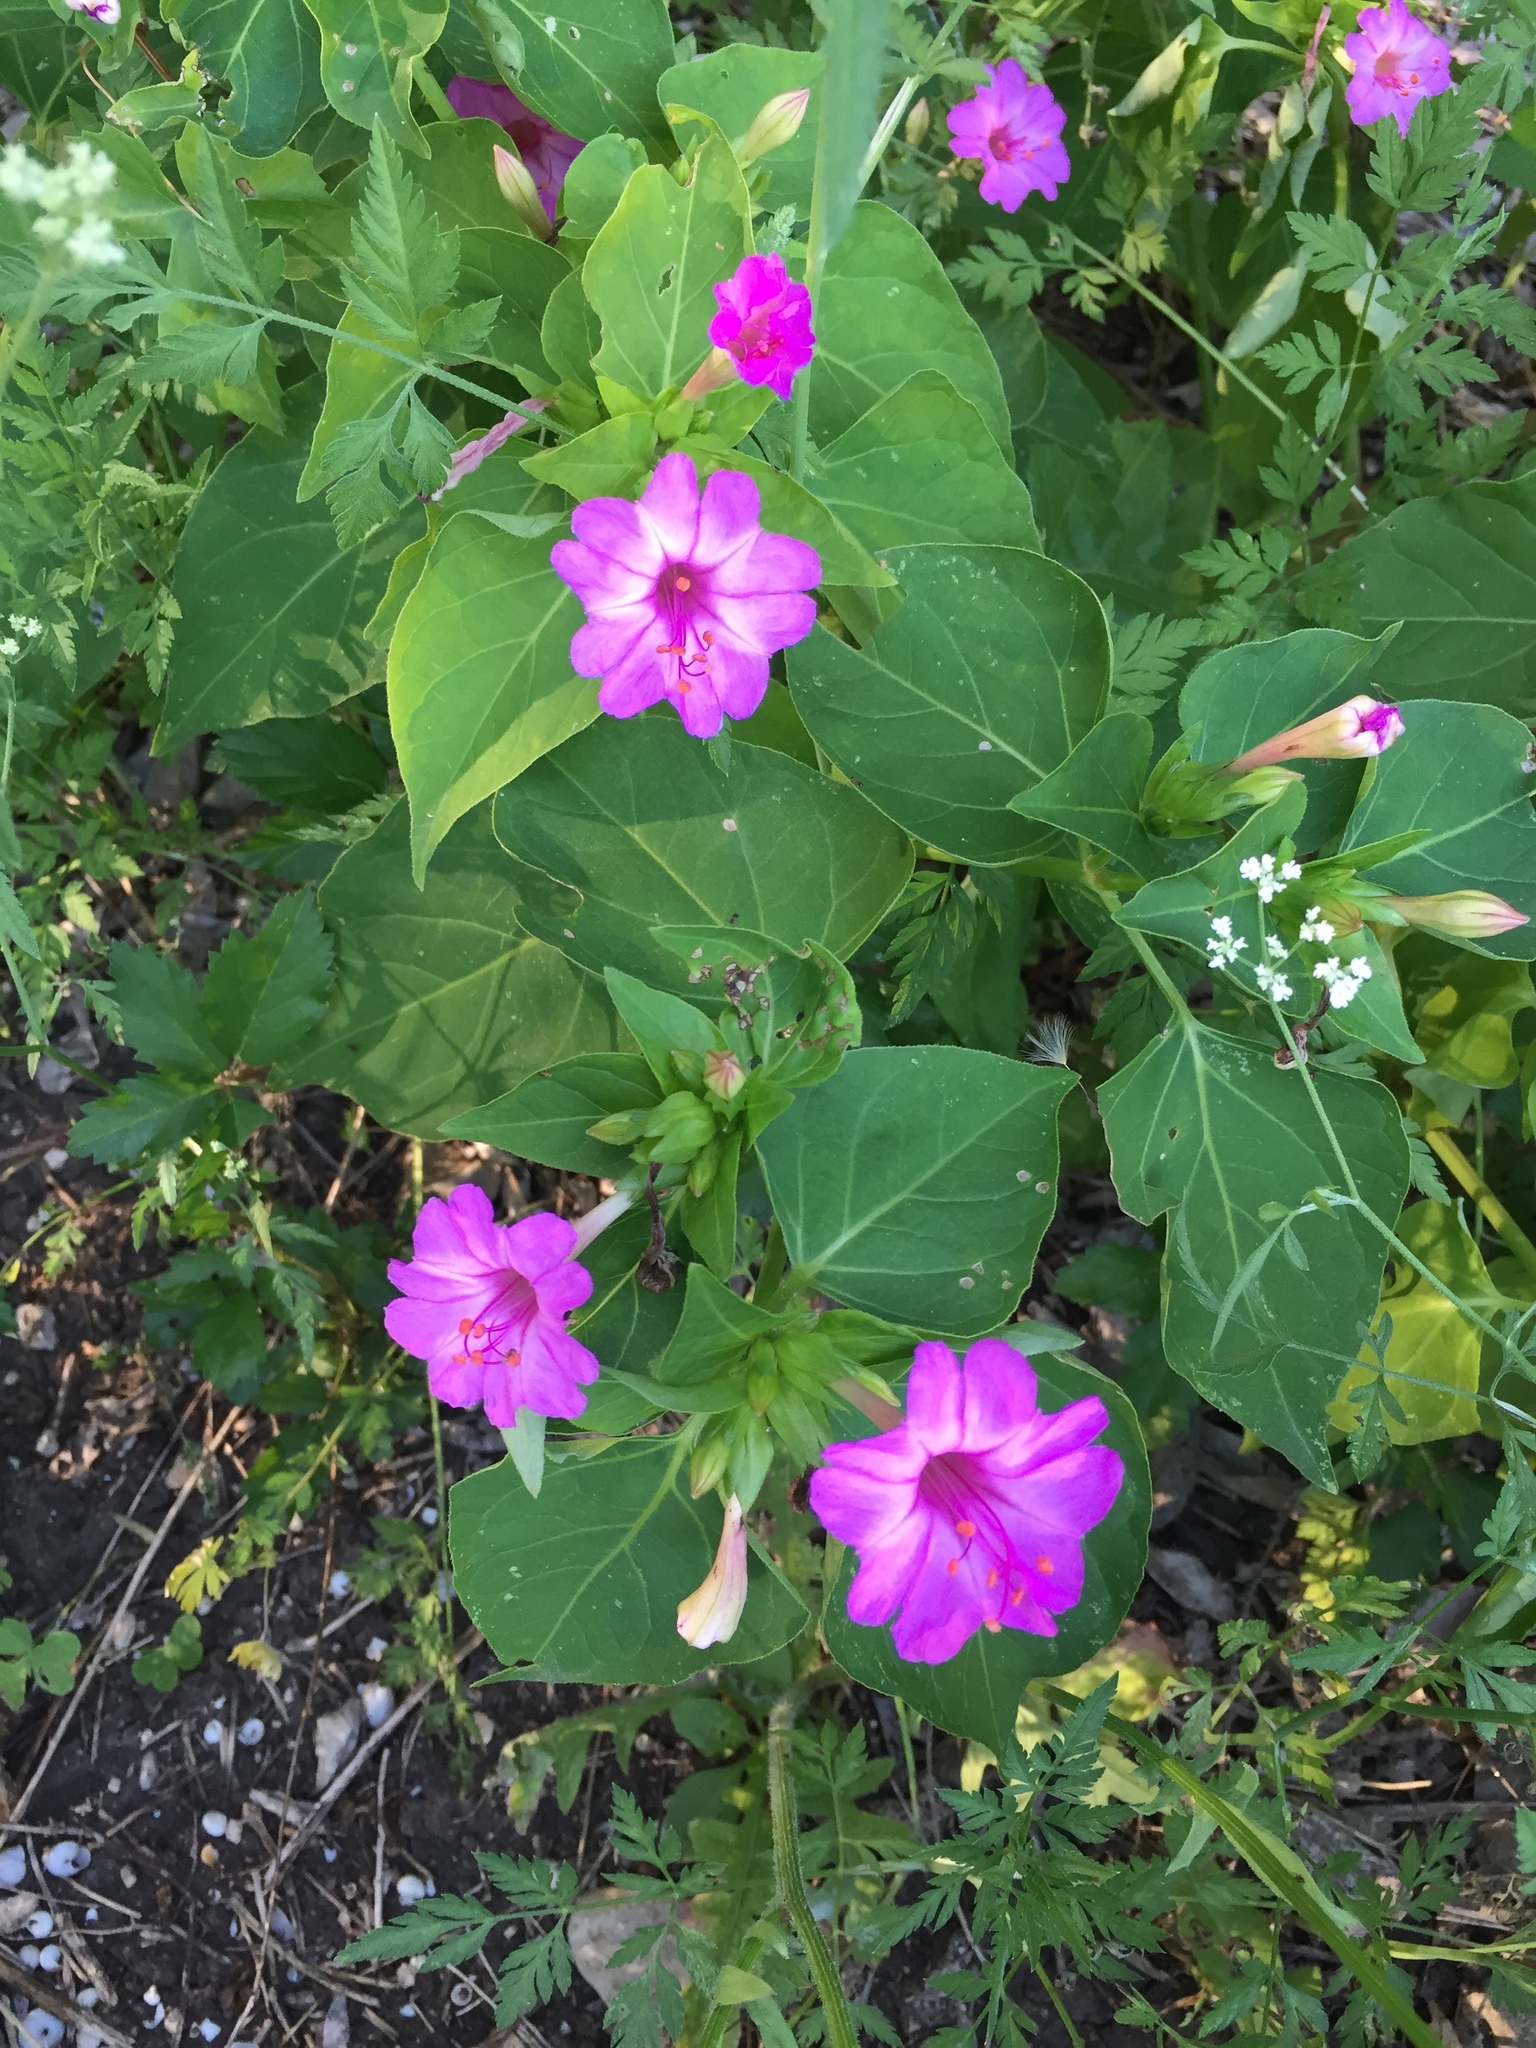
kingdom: Plantae
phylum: Tracheophyta
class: Magnoliopsida
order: Caryophyllales
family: Nyctaginaceae
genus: Mirabilis
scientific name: Mirabilis jalapa
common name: Marvel-of-peru
